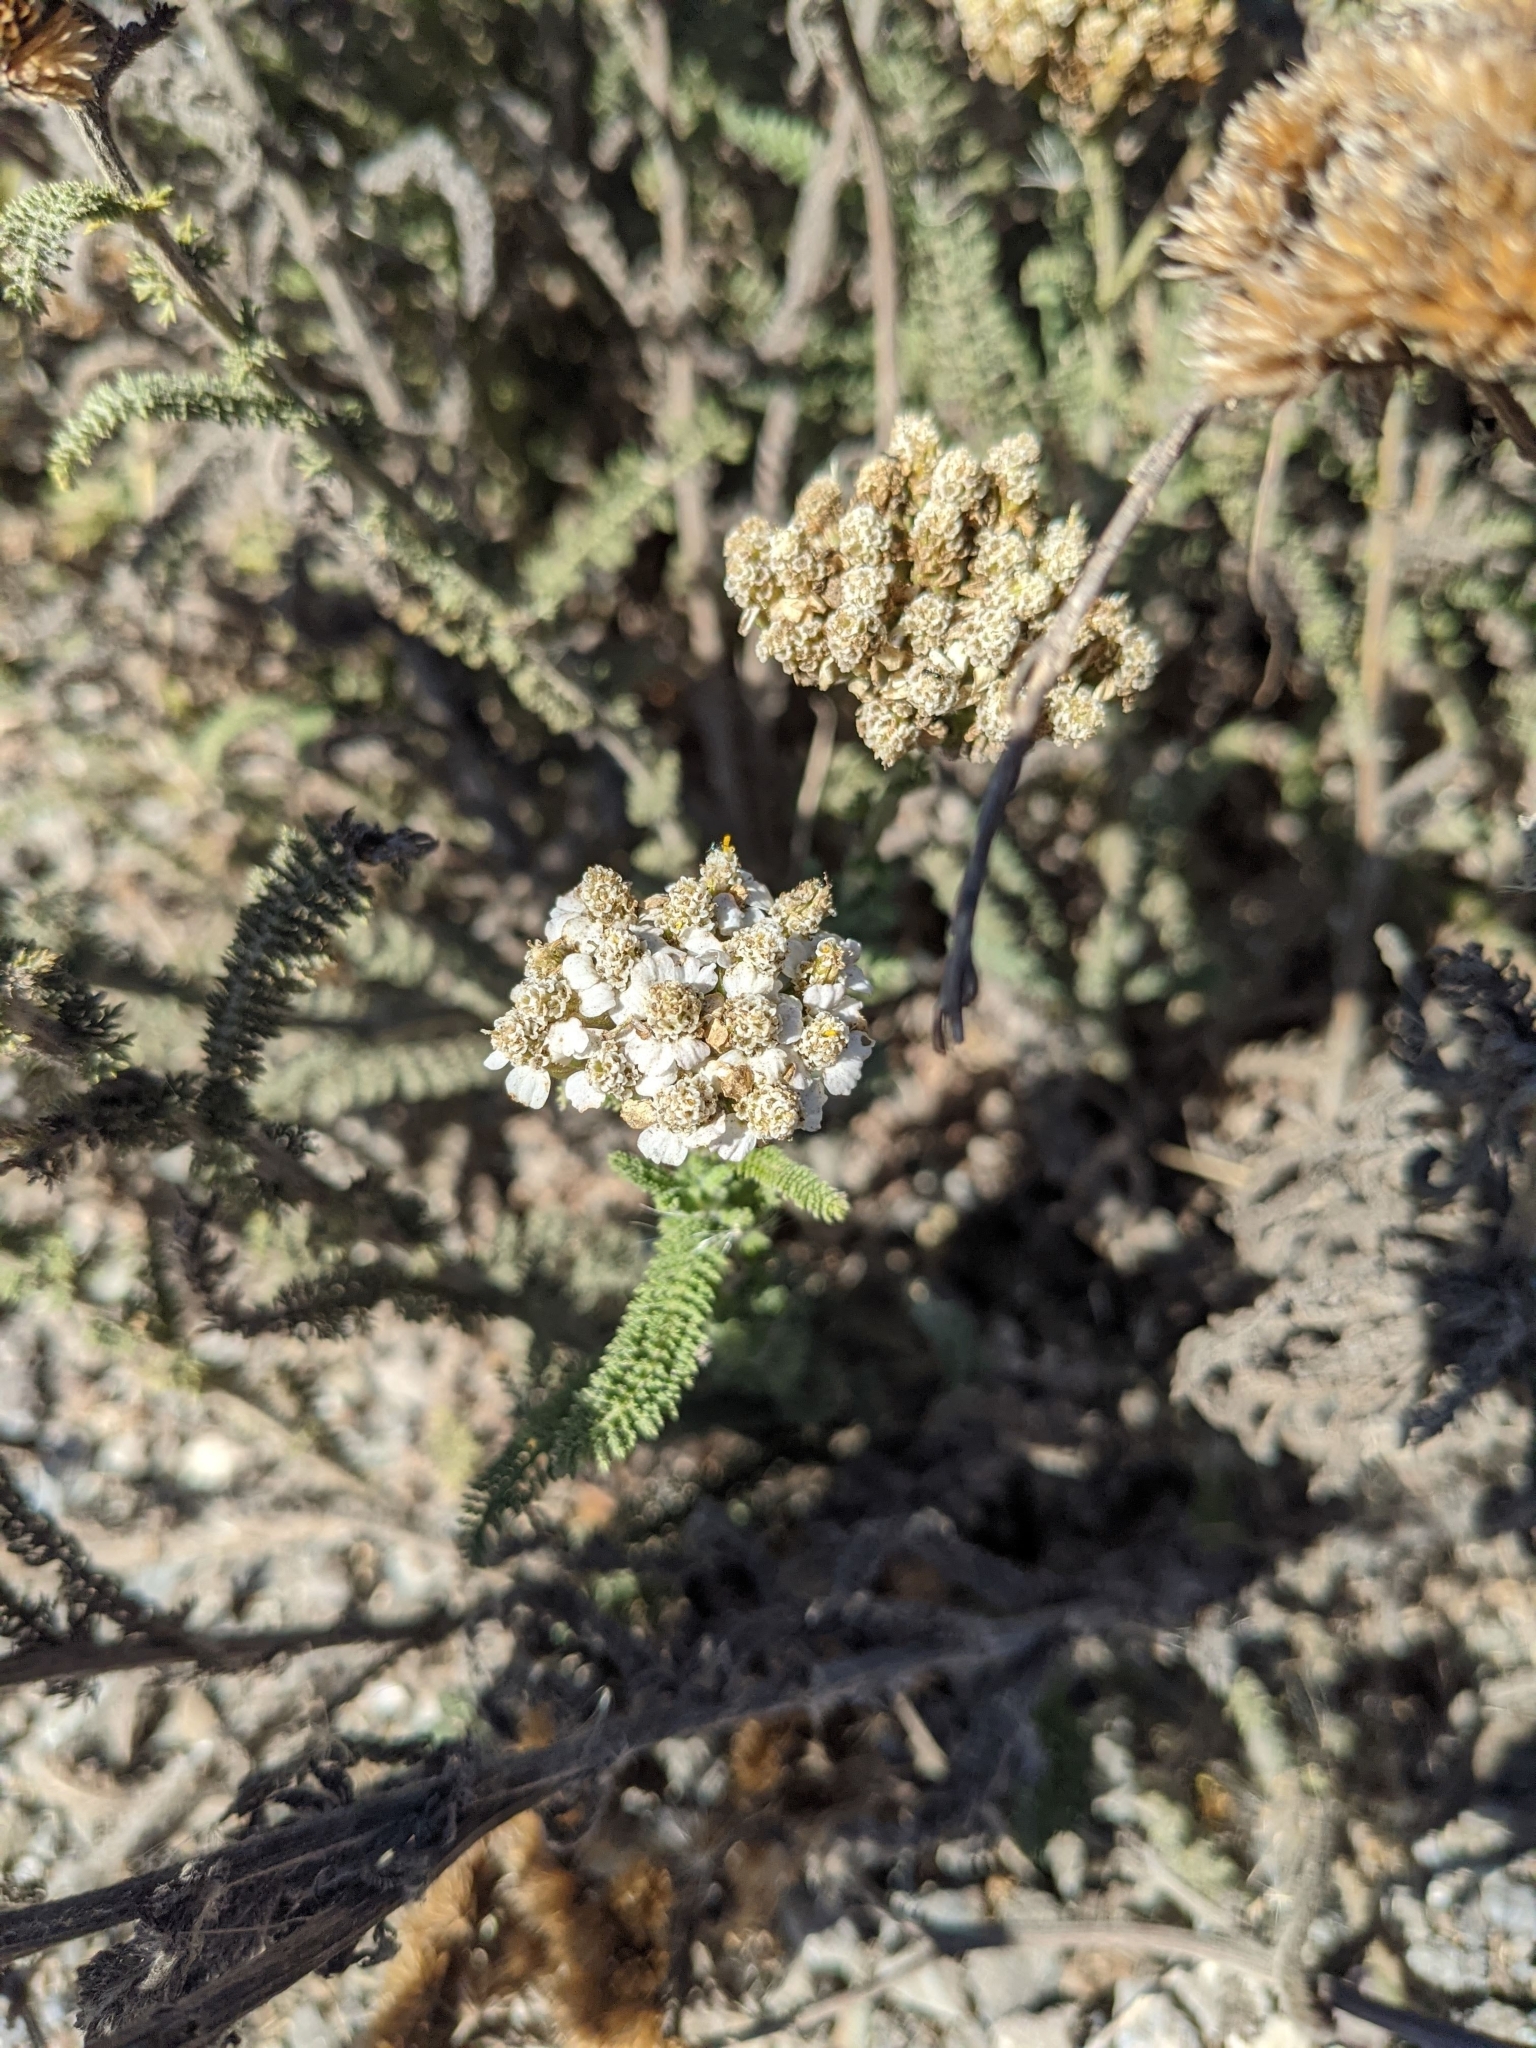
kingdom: Plantae
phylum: Tracheophyta
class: Magnoliopsida
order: Asterales
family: Asteraceae
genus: Achillea
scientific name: Achillea millefolium
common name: Yarrow
